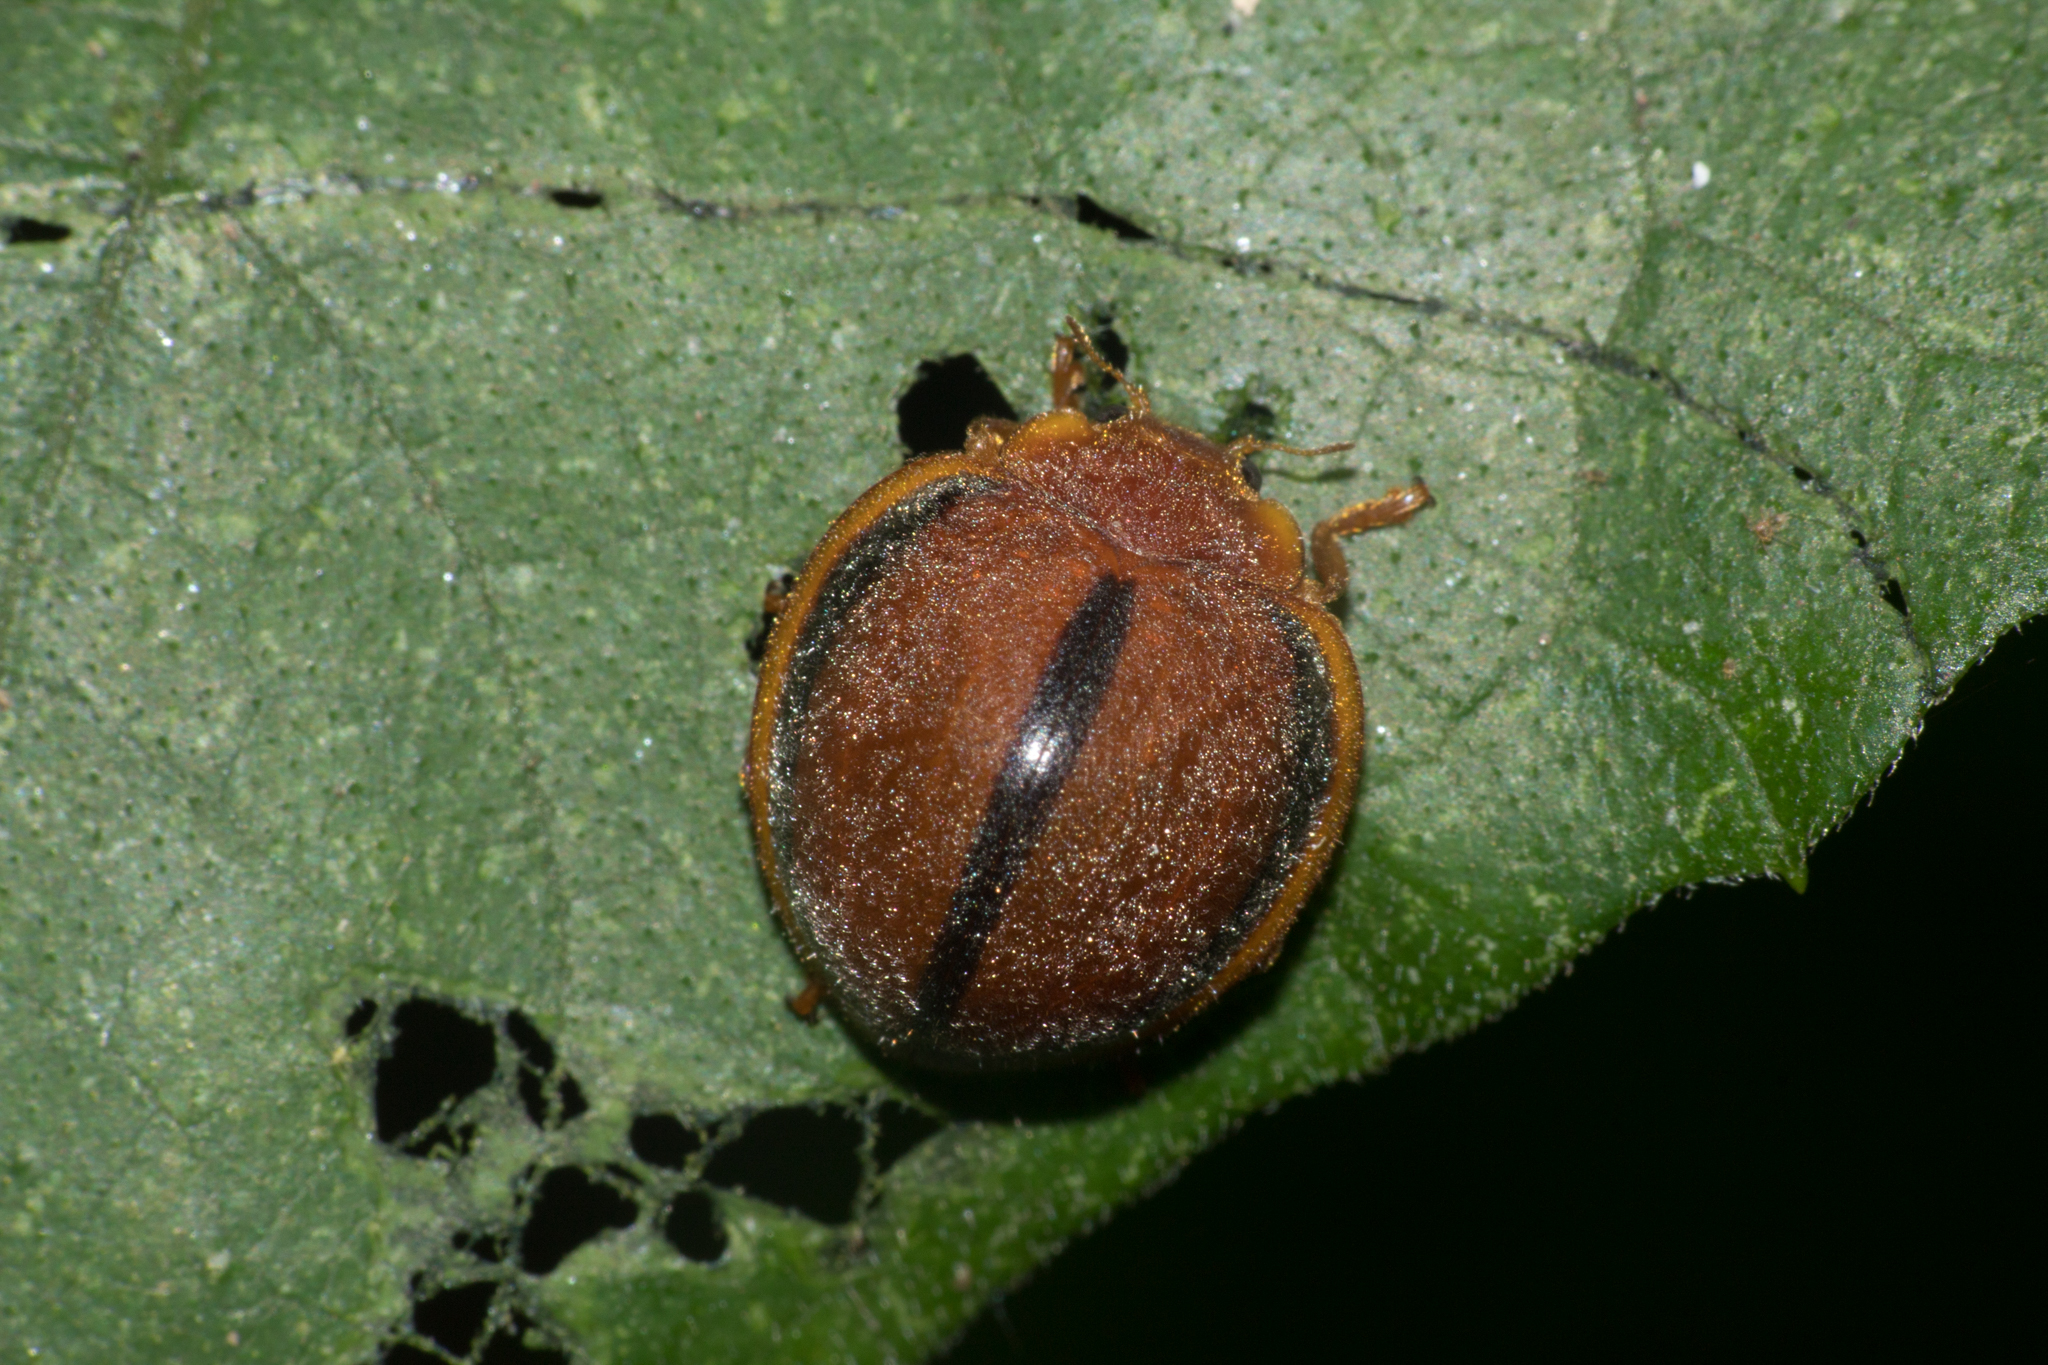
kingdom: Animalia
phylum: Arthropoda
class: Insecta
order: Coleoptera
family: Coccinellidae
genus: Epilachna
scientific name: Epilachna cacica
